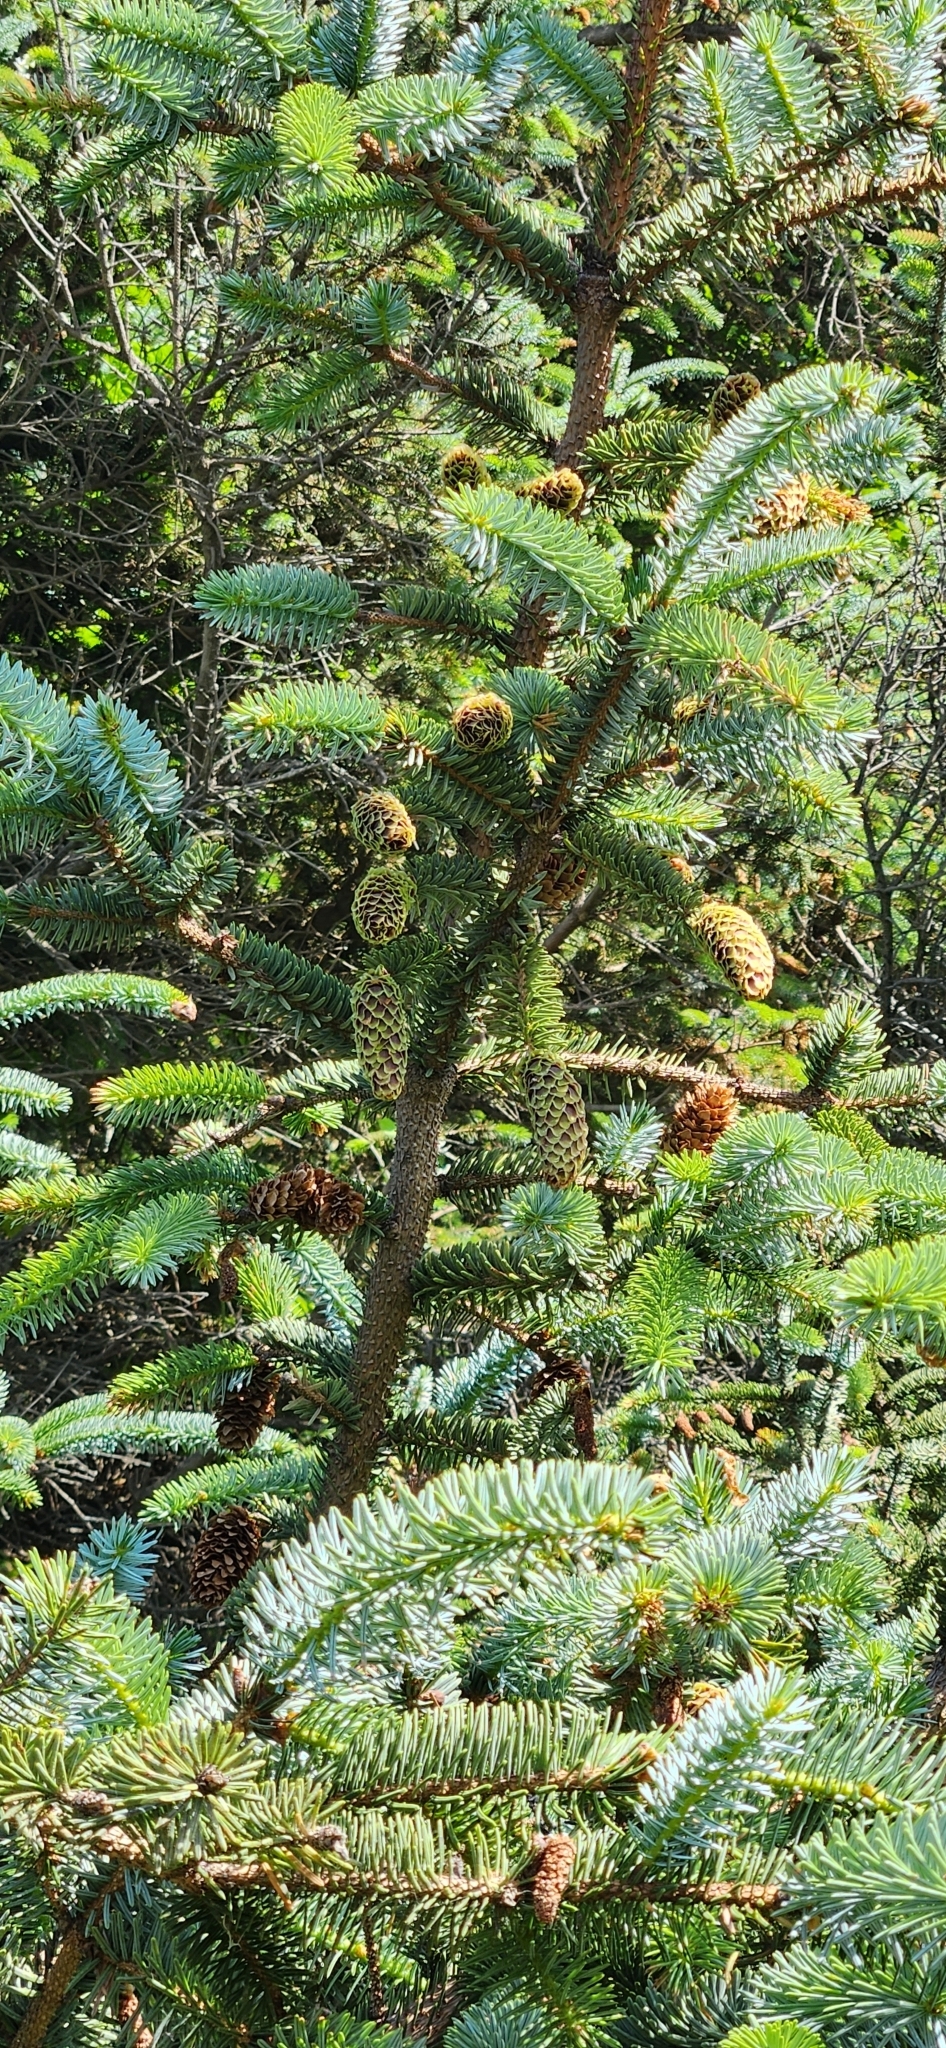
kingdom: Plantae
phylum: Tracheophyta
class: Pinopsida
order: Pinales
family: Pinaceae
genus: Picea
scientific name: Picea sitchensis
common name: Sitka spruce
